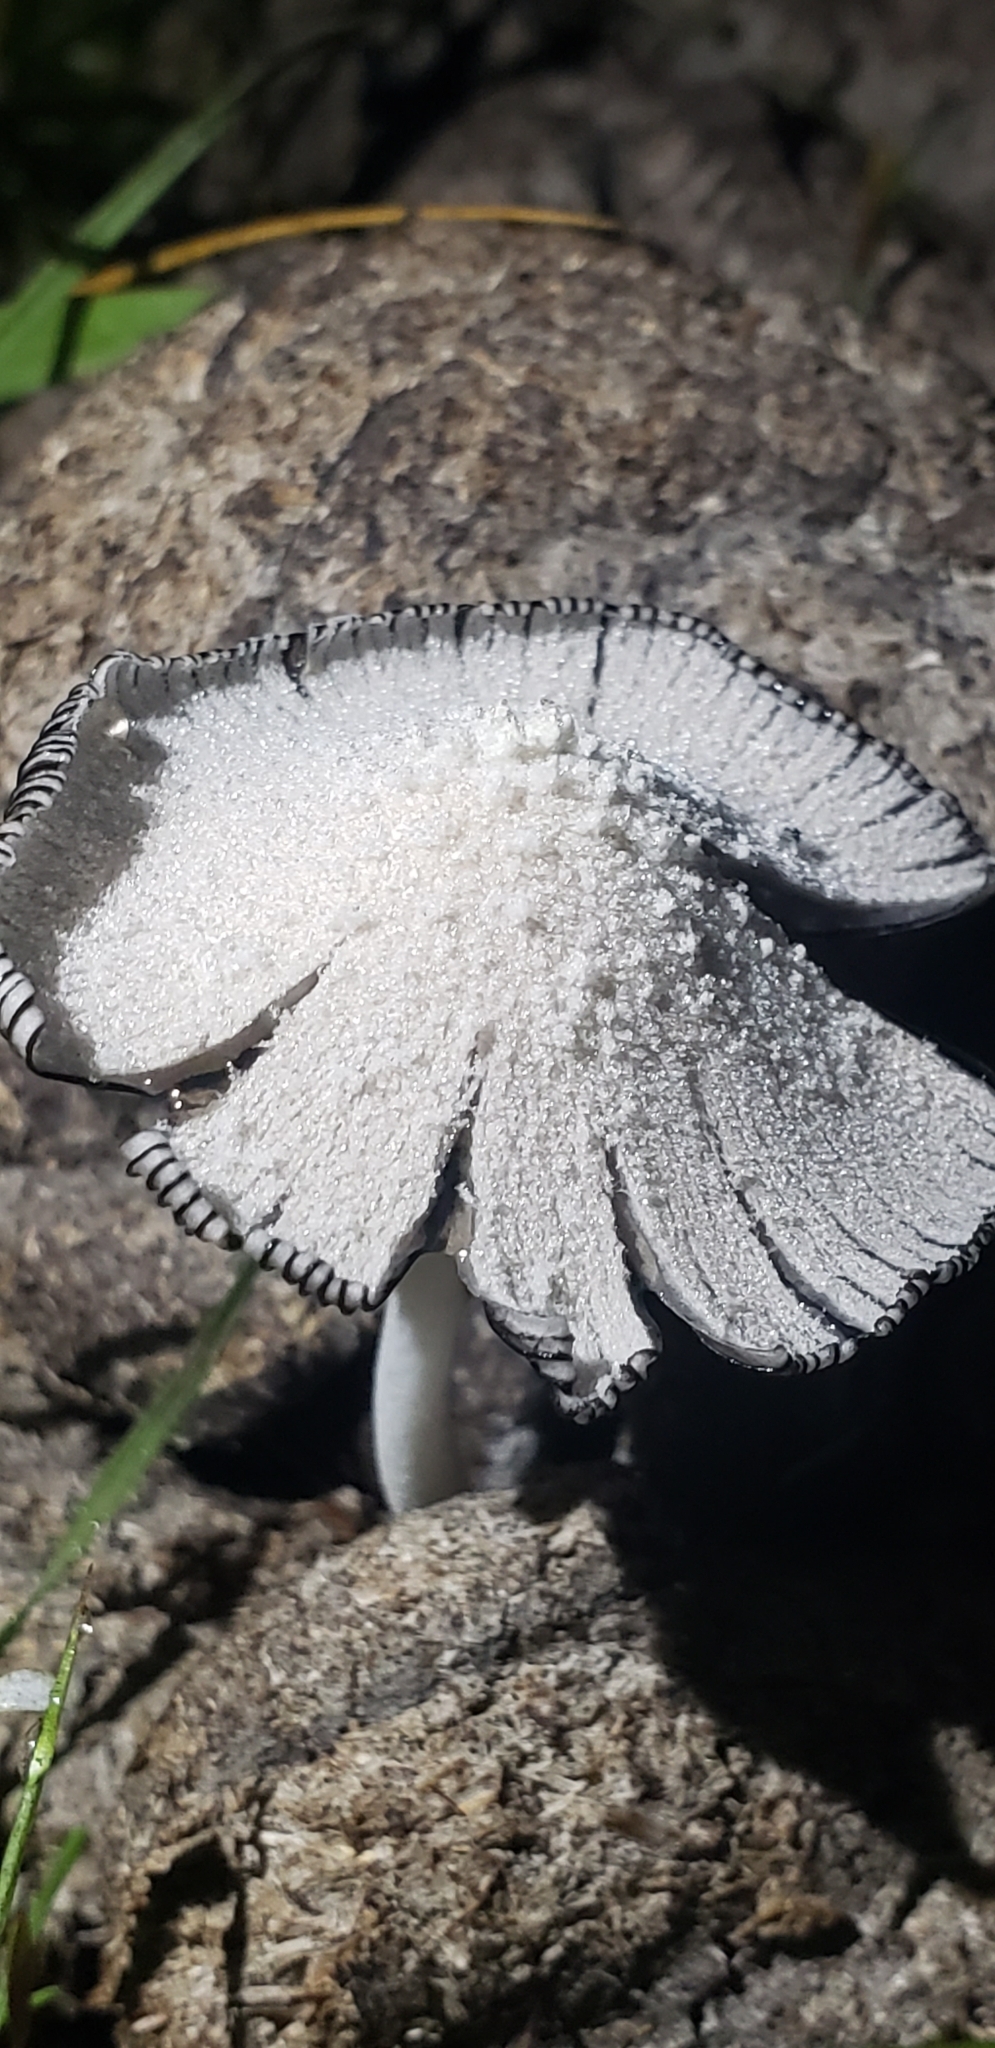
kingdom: Fungi
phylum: Basidiomycota
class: Agaricomycetes
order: Agaricales
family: Psathyrellaceae
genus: Coprinopsis
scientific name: Coprinopsis nivea
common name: Snowy inkcap
